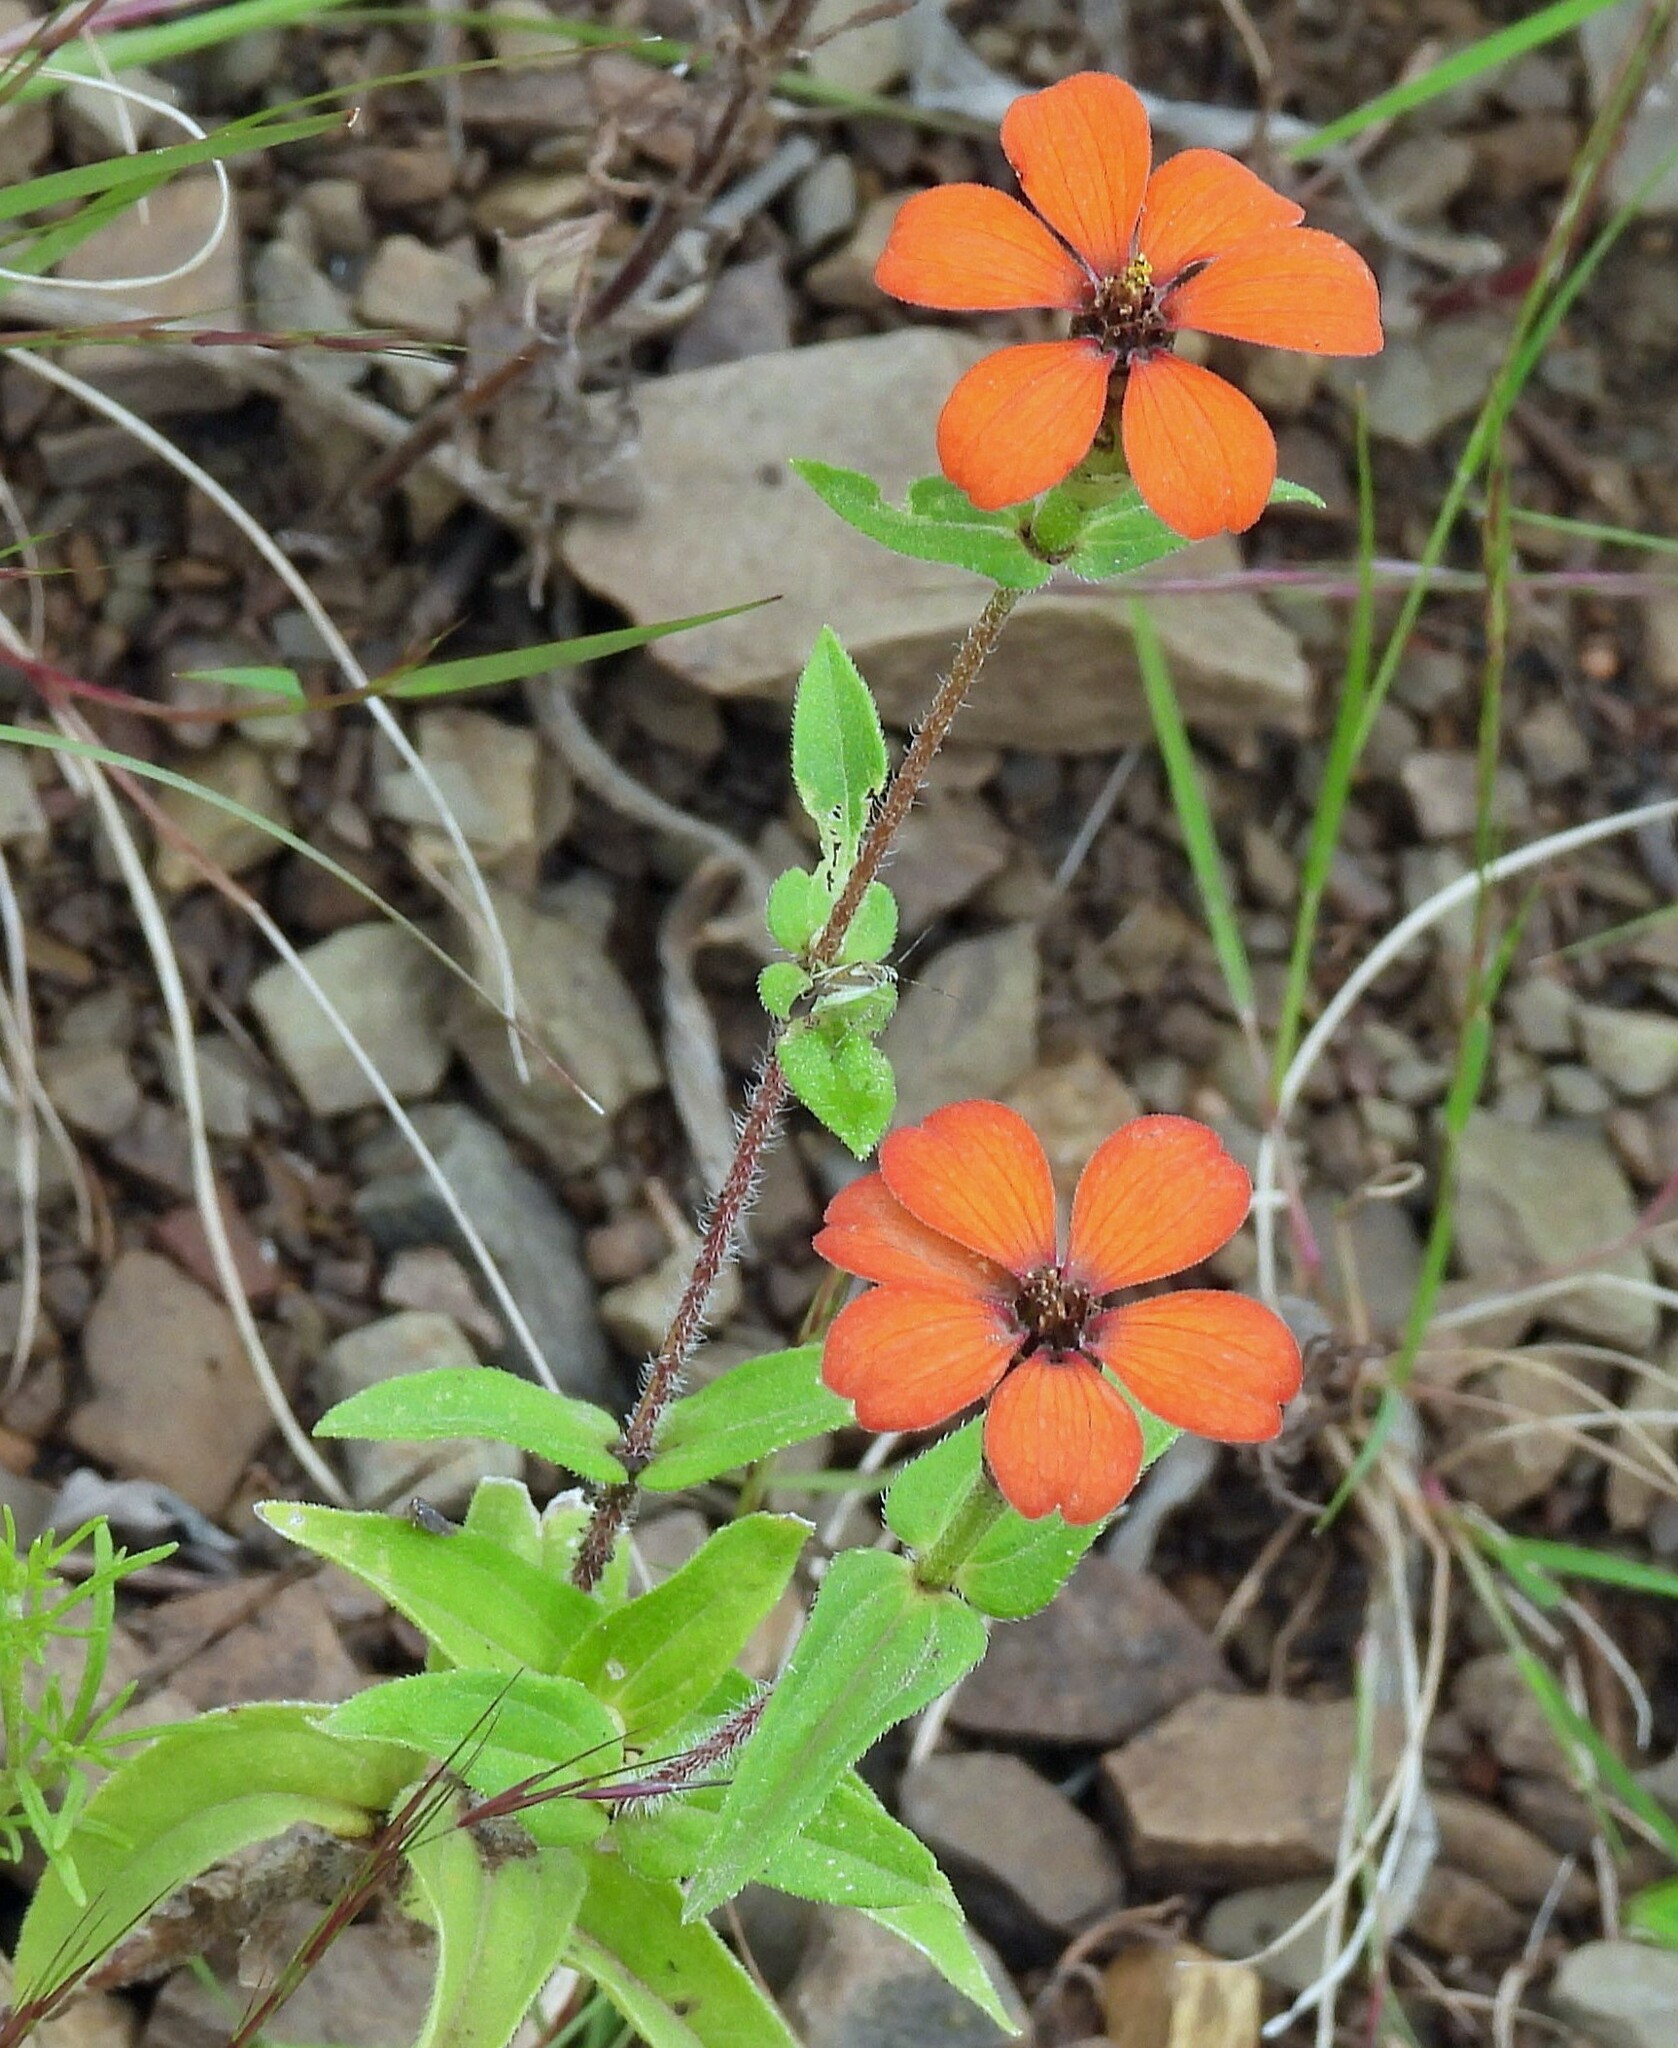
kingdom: Plantae
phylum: Tracheophyta
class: Magnoliopsida
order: Asterales
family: Asteraceae
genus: Zinnia
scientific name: Zinnia peruviana
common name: Peruvian zinnia
